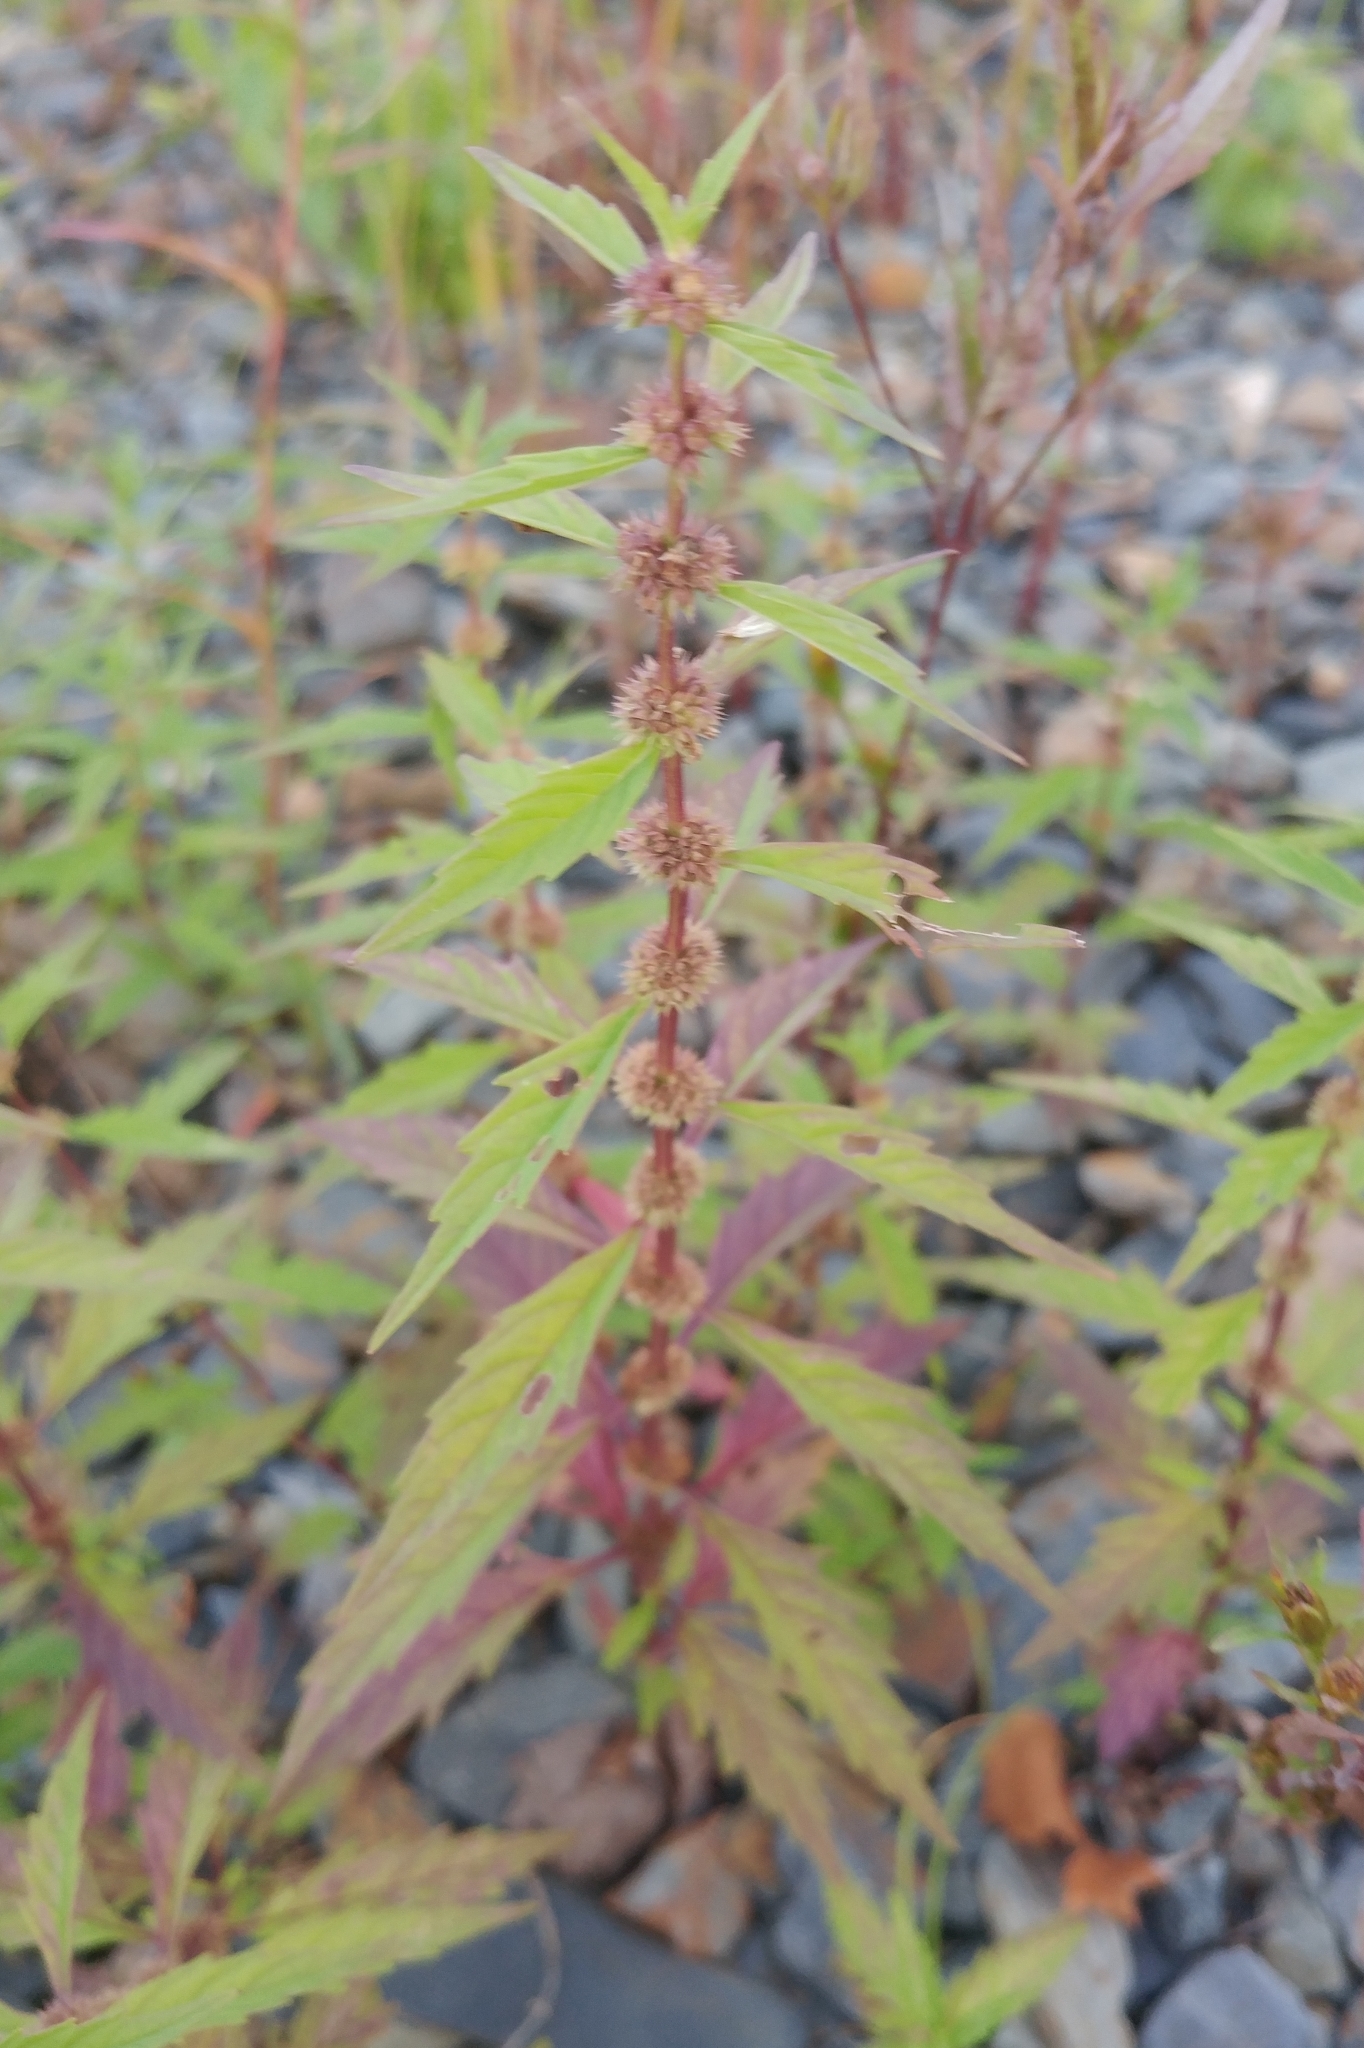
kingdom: Plantae
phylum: Tracheophyta
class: Magnoliopsida
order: Lamiales
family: Lamiaceae
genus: Lycopus
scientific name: Lycopus americanus
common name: American bugleweed
